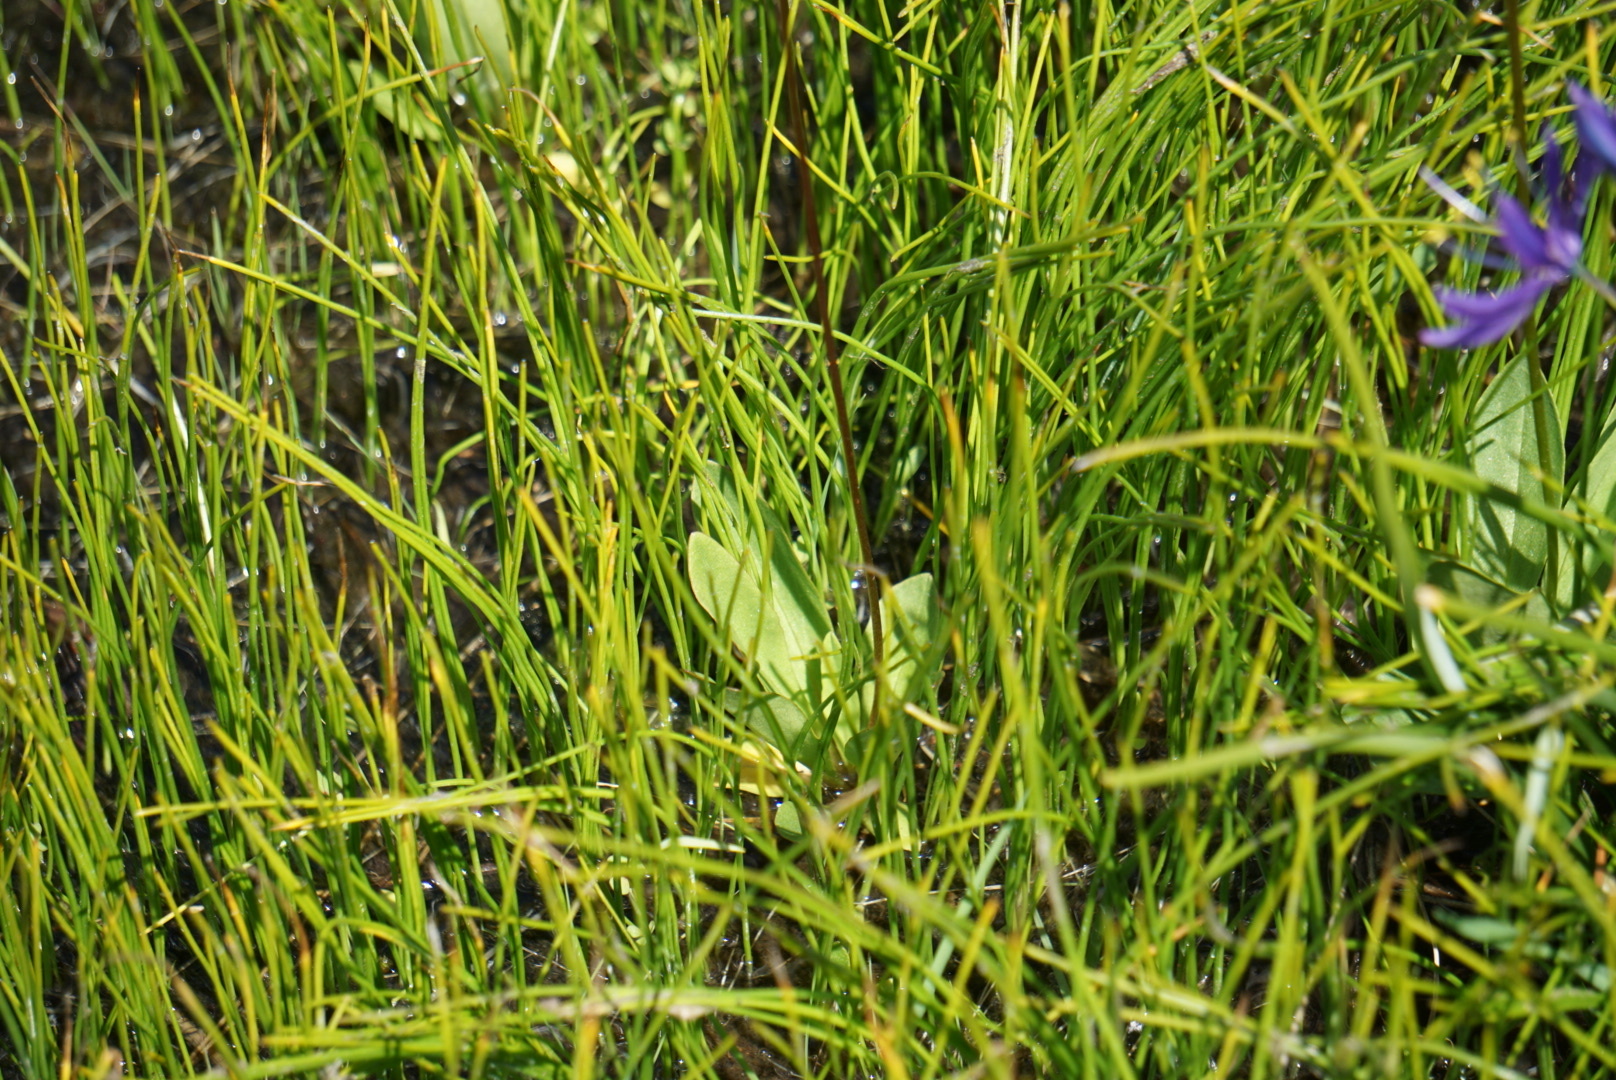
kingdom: Plantae
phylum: Tracheophyta
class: Magnoliopsida
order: Ericales
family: Primulaceae
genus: Dodecatheon
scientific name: Dodecatheon pulchellum
